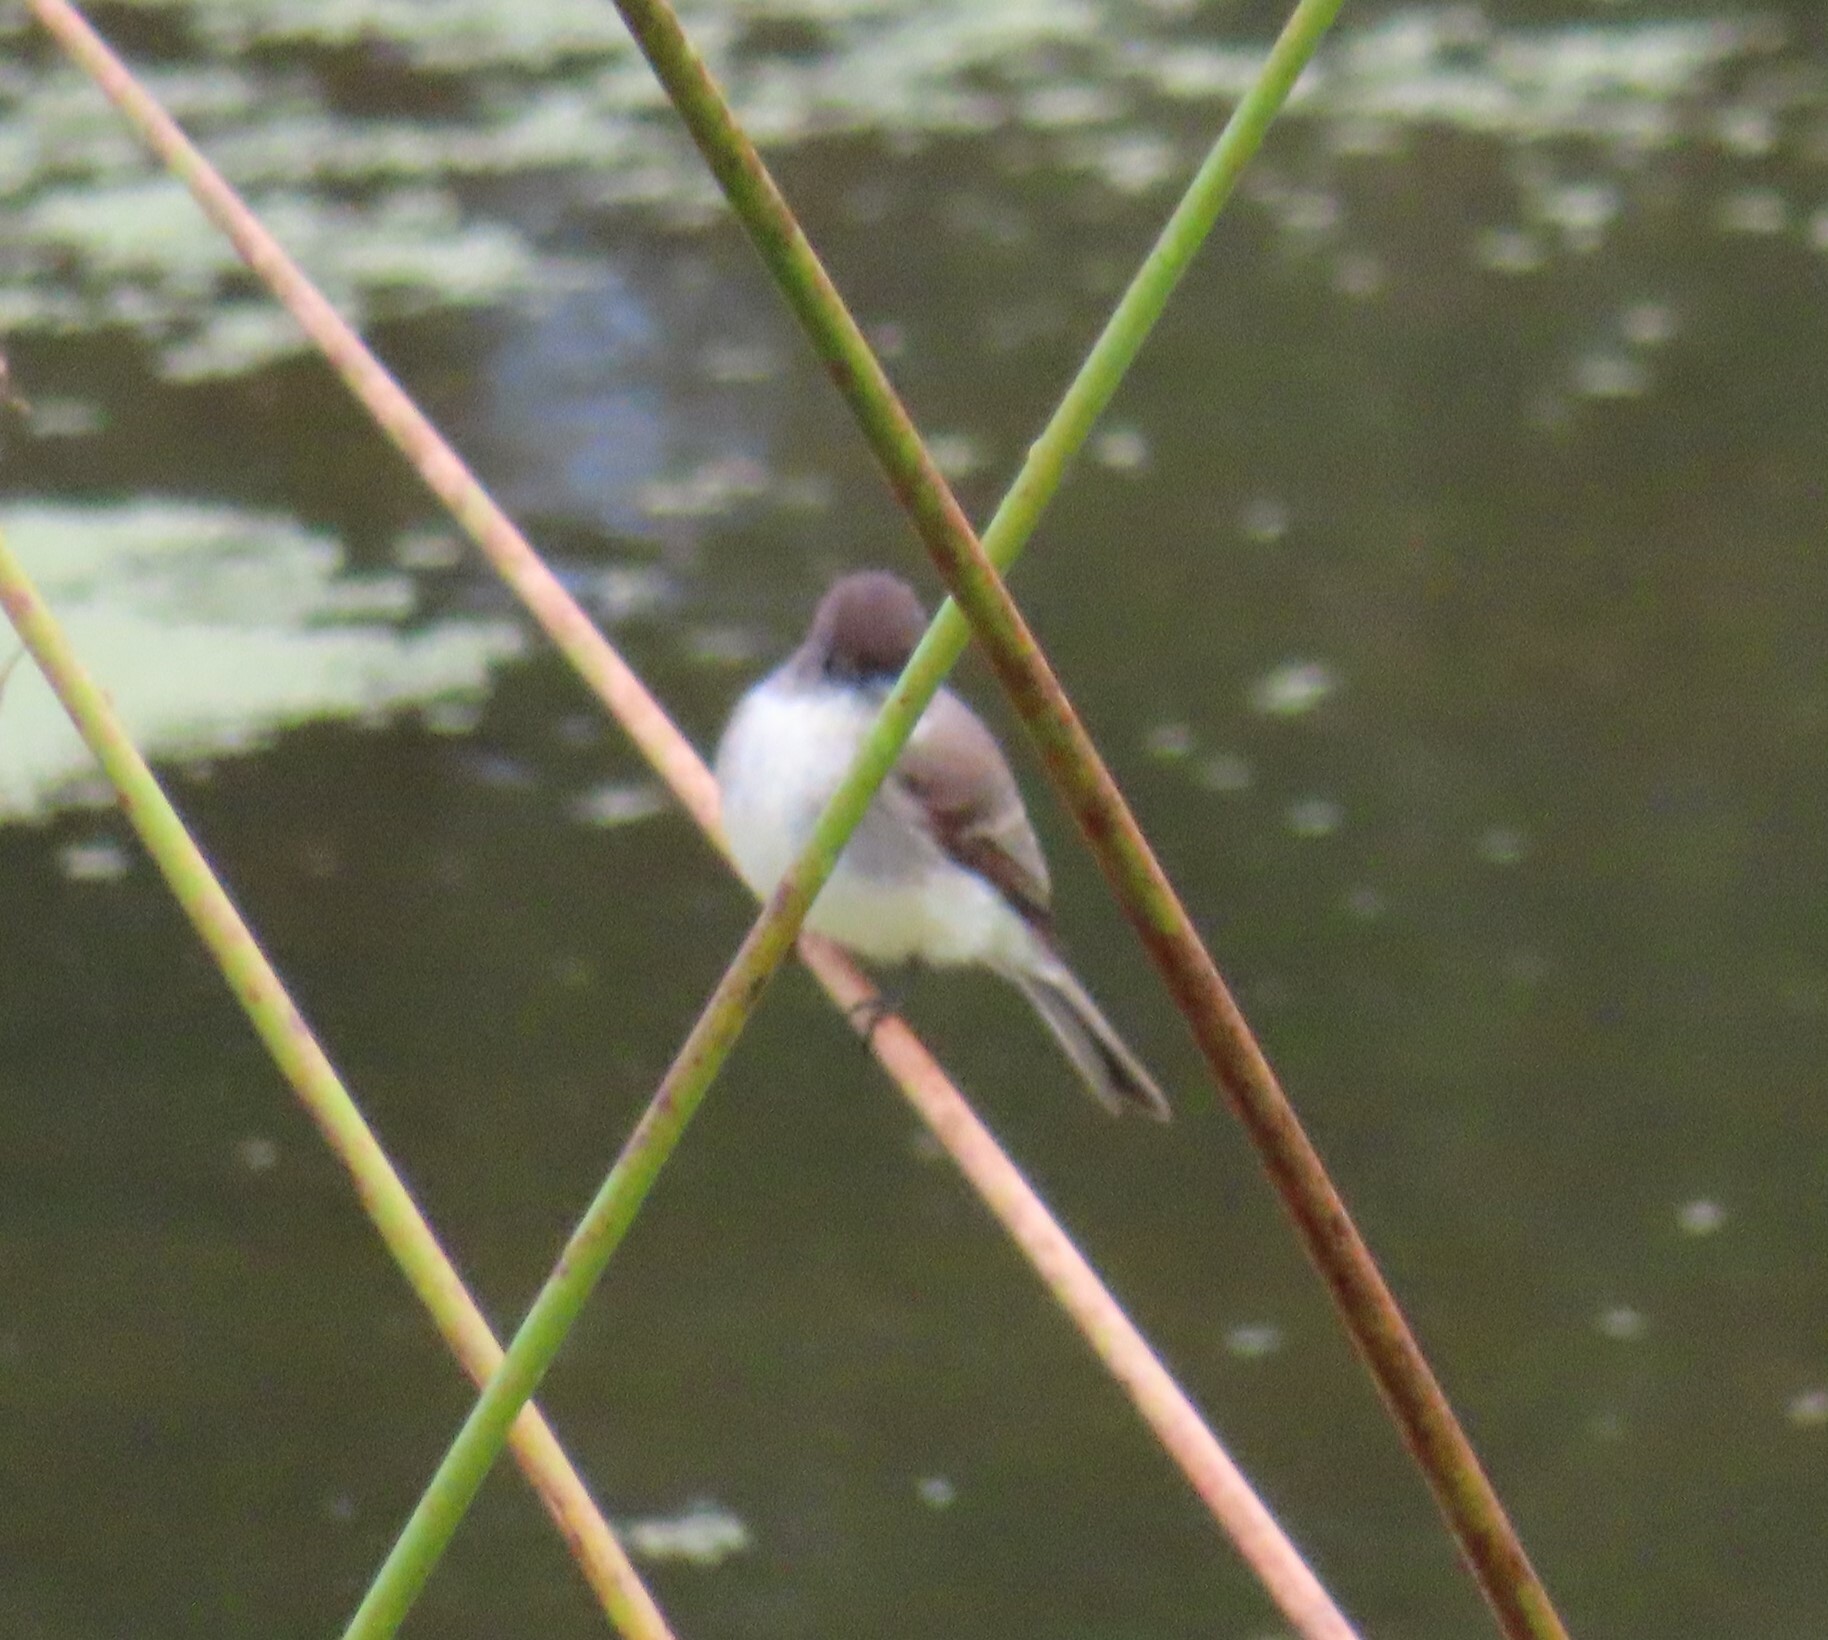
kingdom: Animalia
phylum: Chordata
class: Aves
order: Passeriformes
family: Tyrannidae
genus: Sayornis
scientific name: Sayornis phoebe
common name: Eastern phoebe
